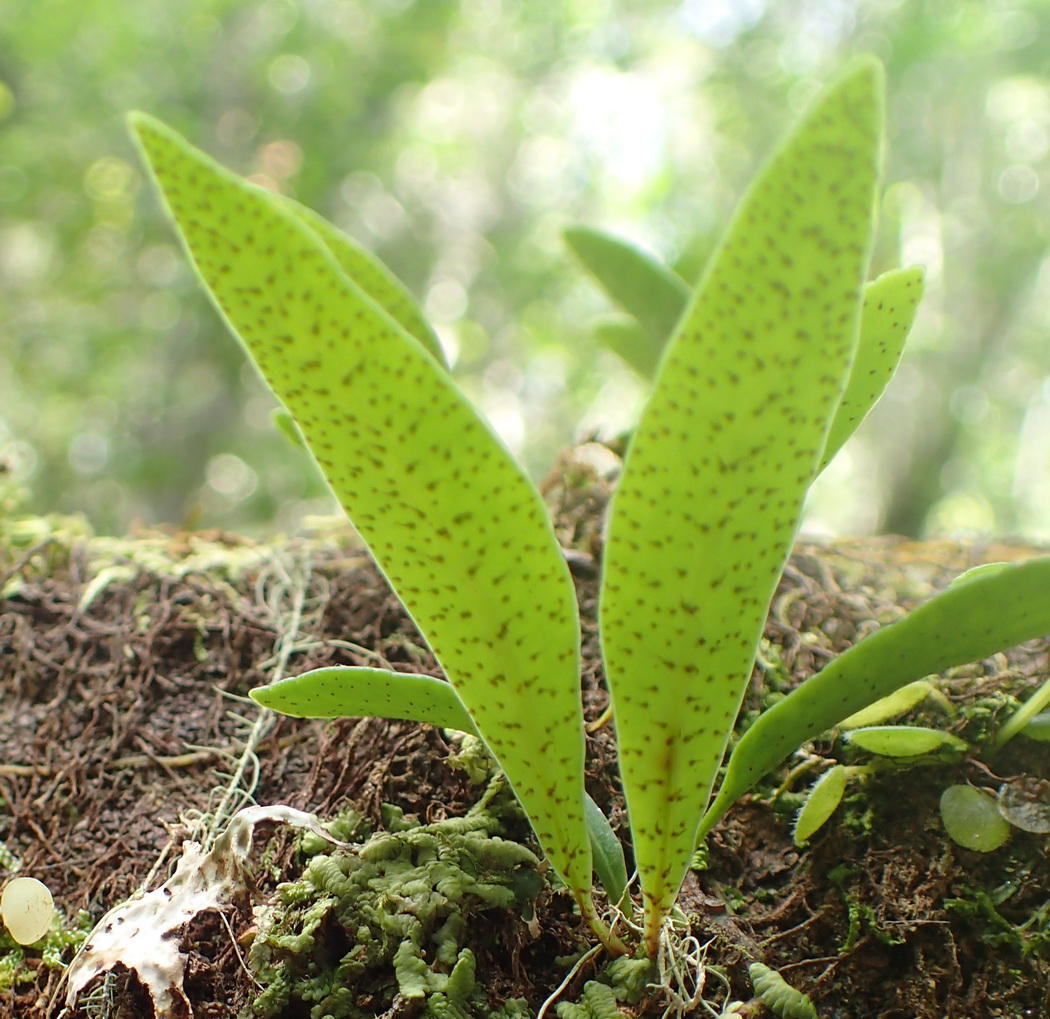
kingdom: Plantae
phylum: Tracheophyta
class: Polypodiopsida
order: Polypodiales
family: Polypodiaceae
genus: Pleopeltis
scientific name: Pleopeltis macrocarpa
